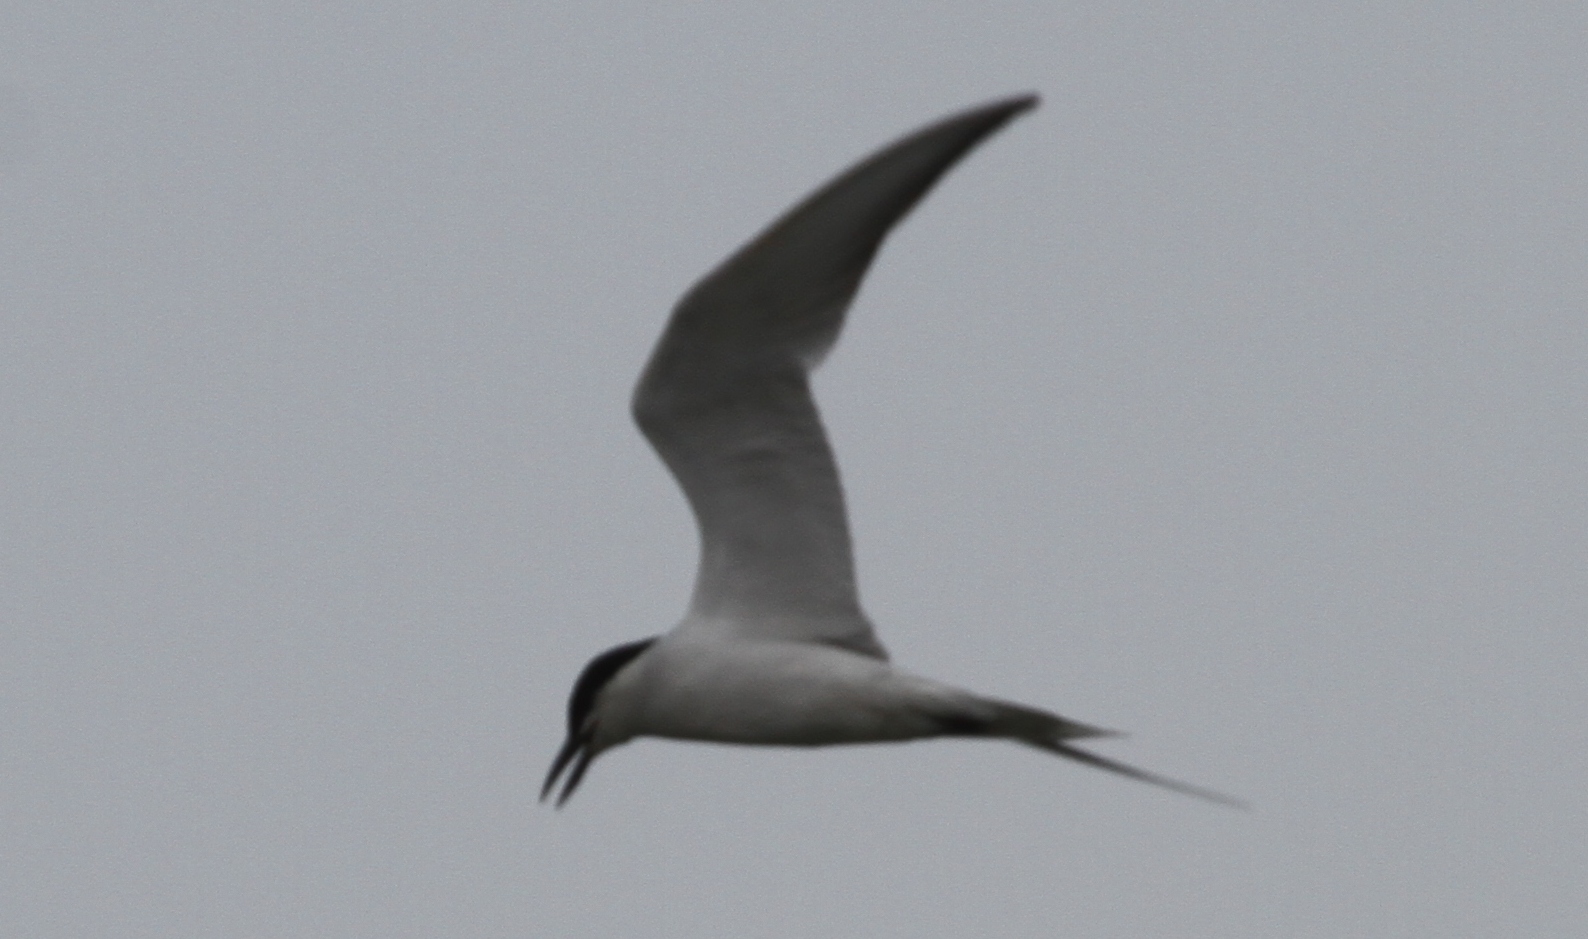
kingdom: Animalia
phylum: Chordata
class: Aves
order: Charadriiformes
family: Laridae
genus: Gelochelidon
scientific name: Gelochelidon nilotica
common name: Gull-billed tern
